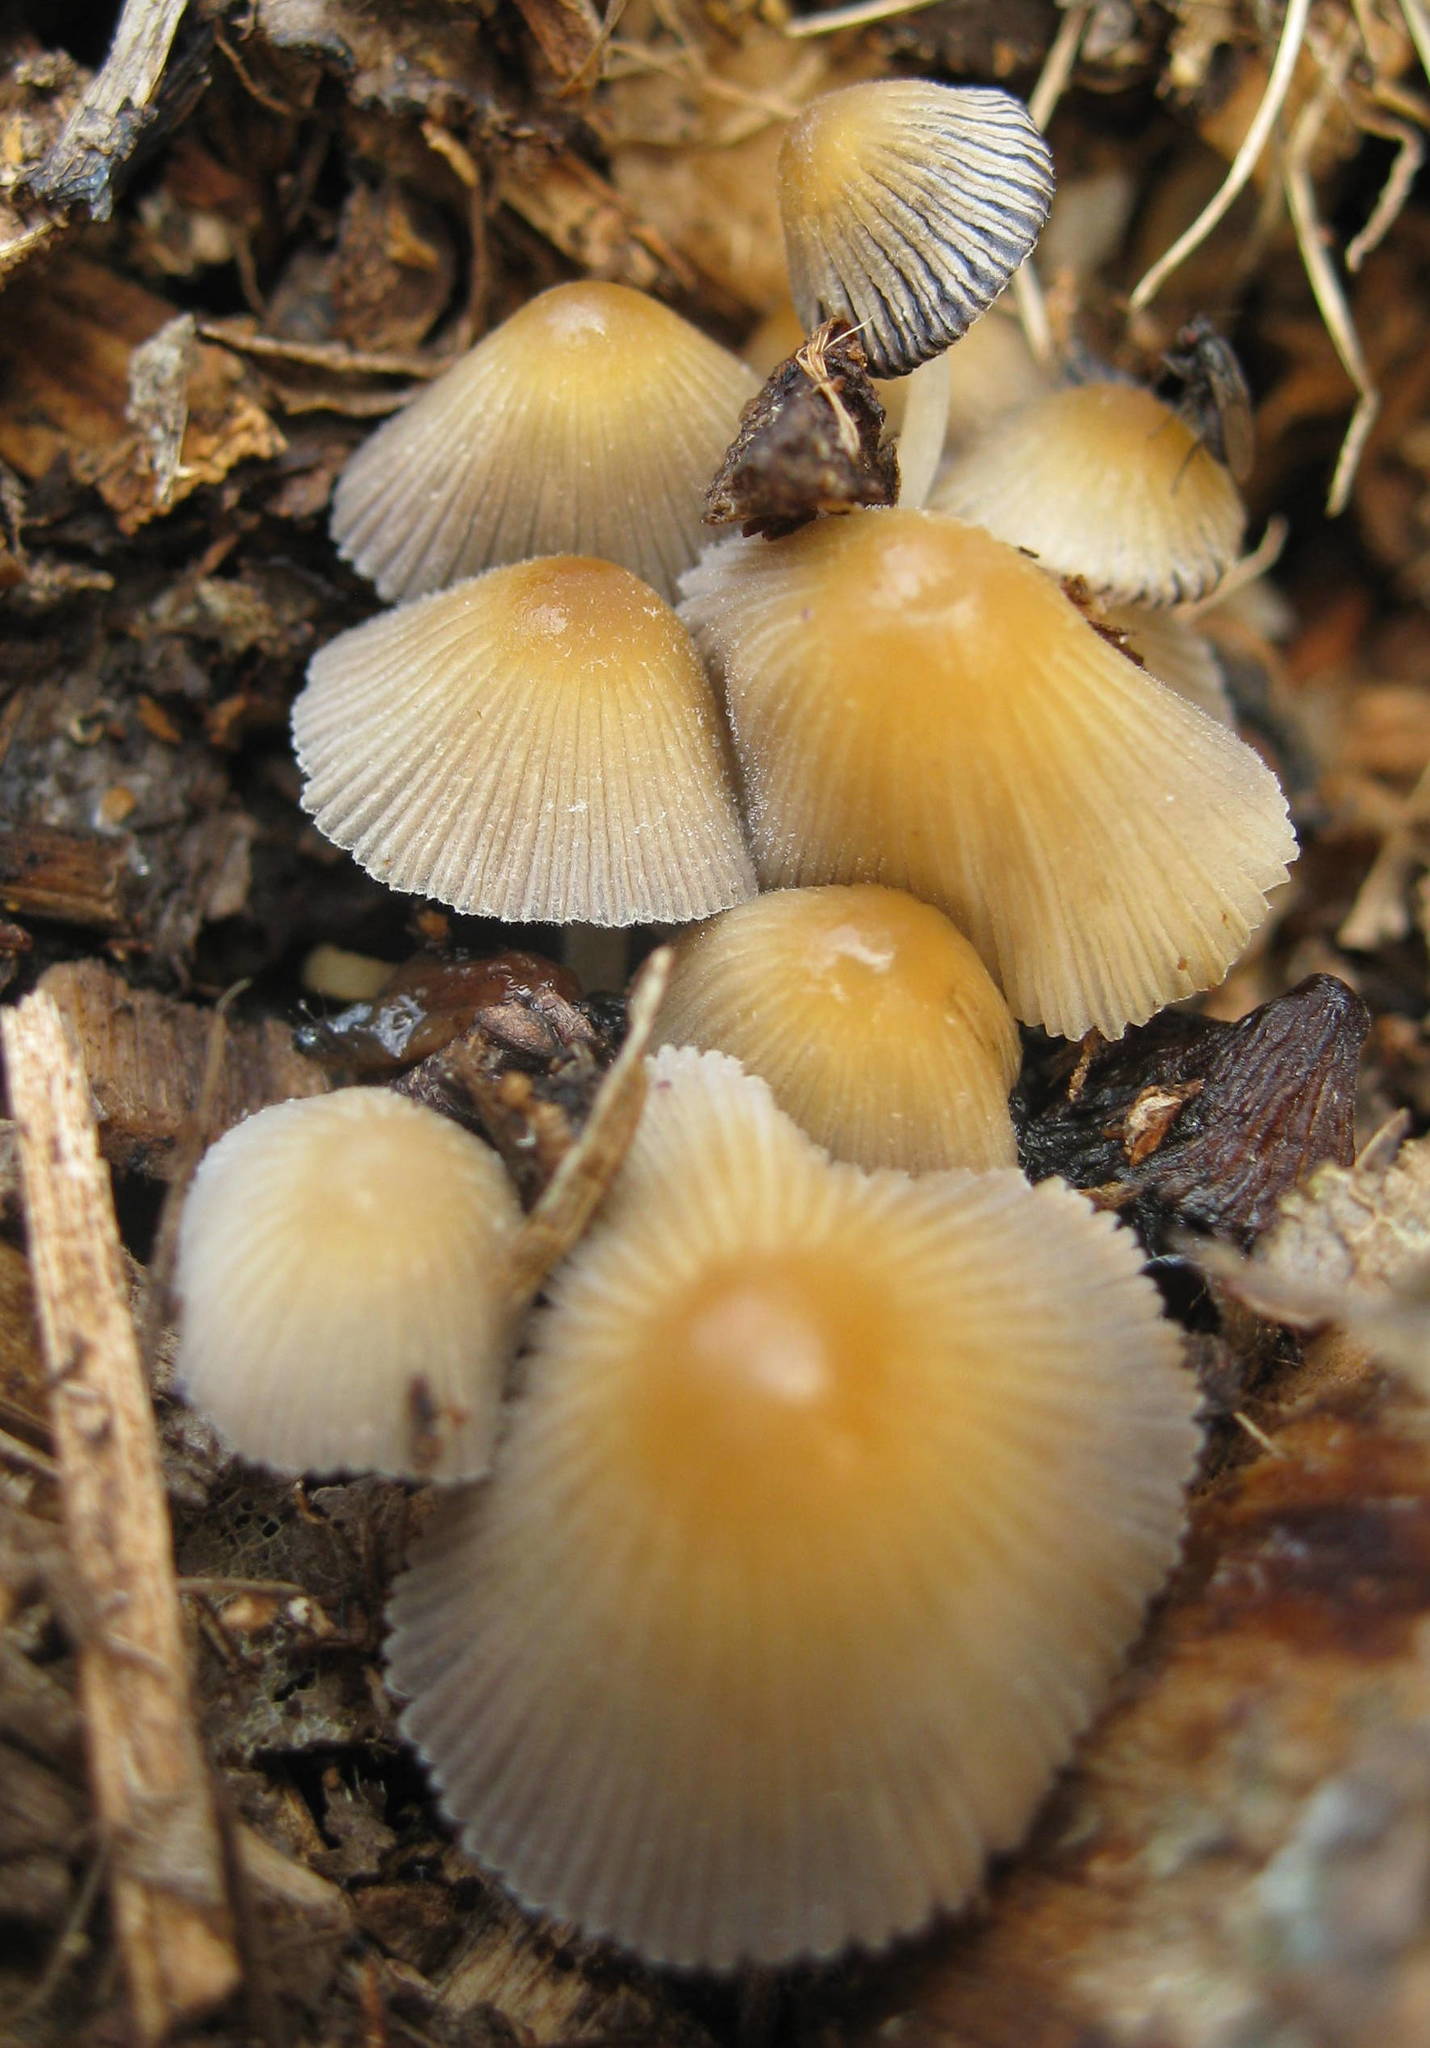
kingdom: Fungi
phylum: Basidiomycota
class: Agaricomycetes
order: Agaricales
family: Psathyrellaceae
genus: Coprinellus
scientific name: Coprinellus micaceus
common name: Glistening ink-cap
